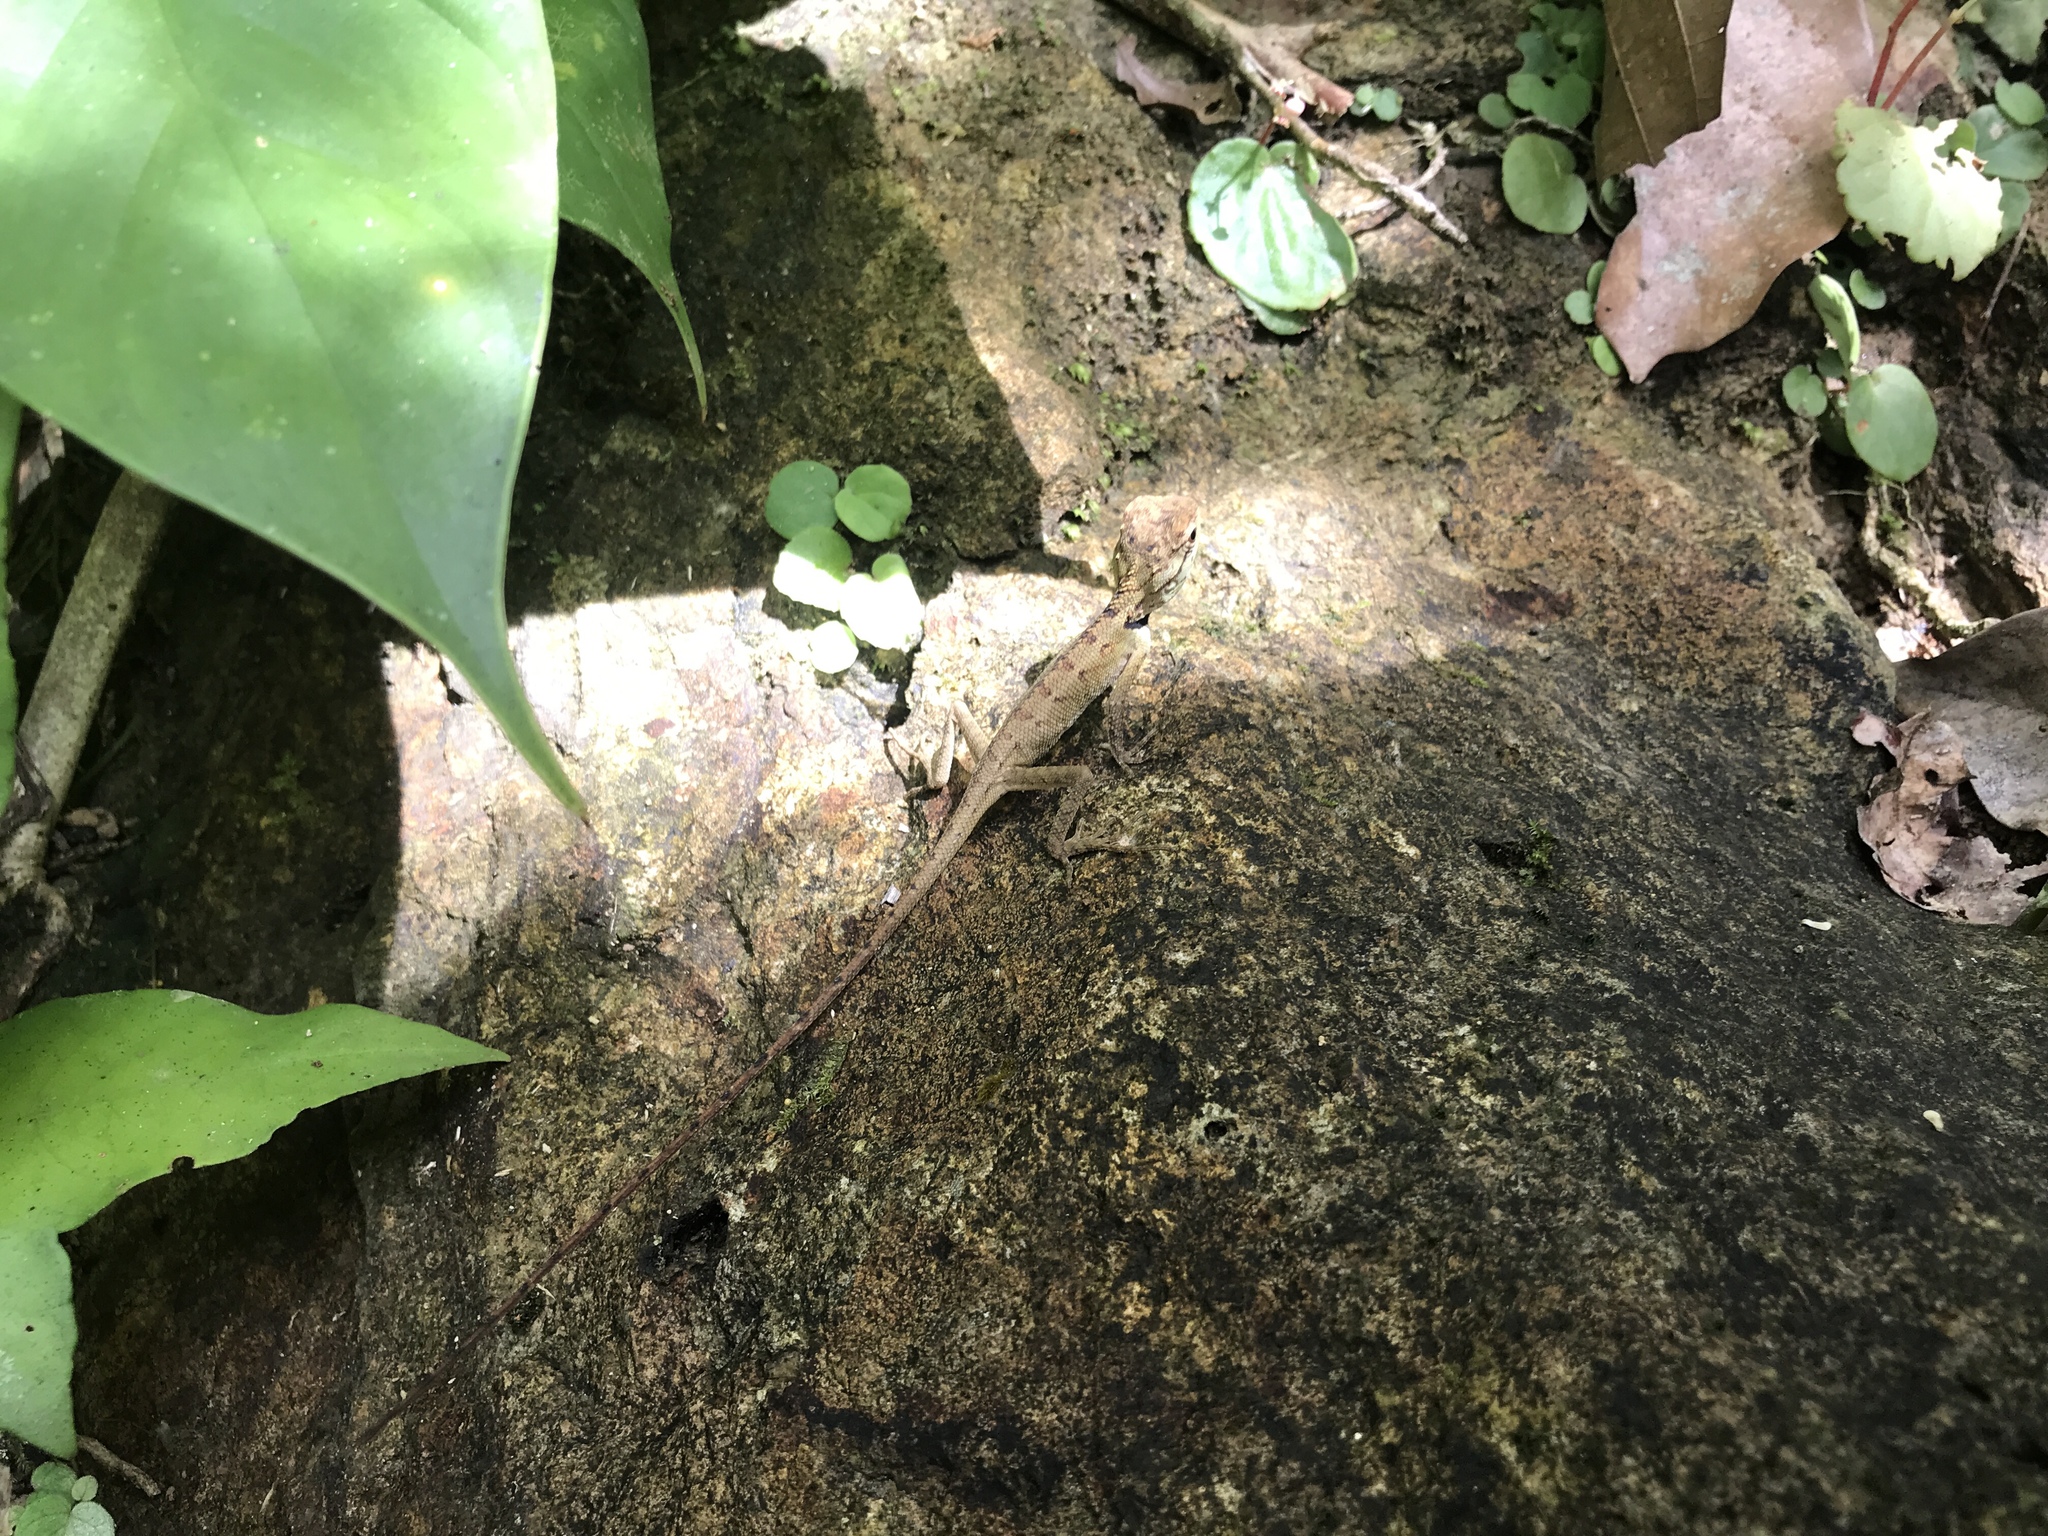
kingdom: Animalia
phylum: Chordata
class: Squamata
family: Agamidae
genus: Calotes
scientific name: Calotes emma
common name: Thailand bloodsucker
